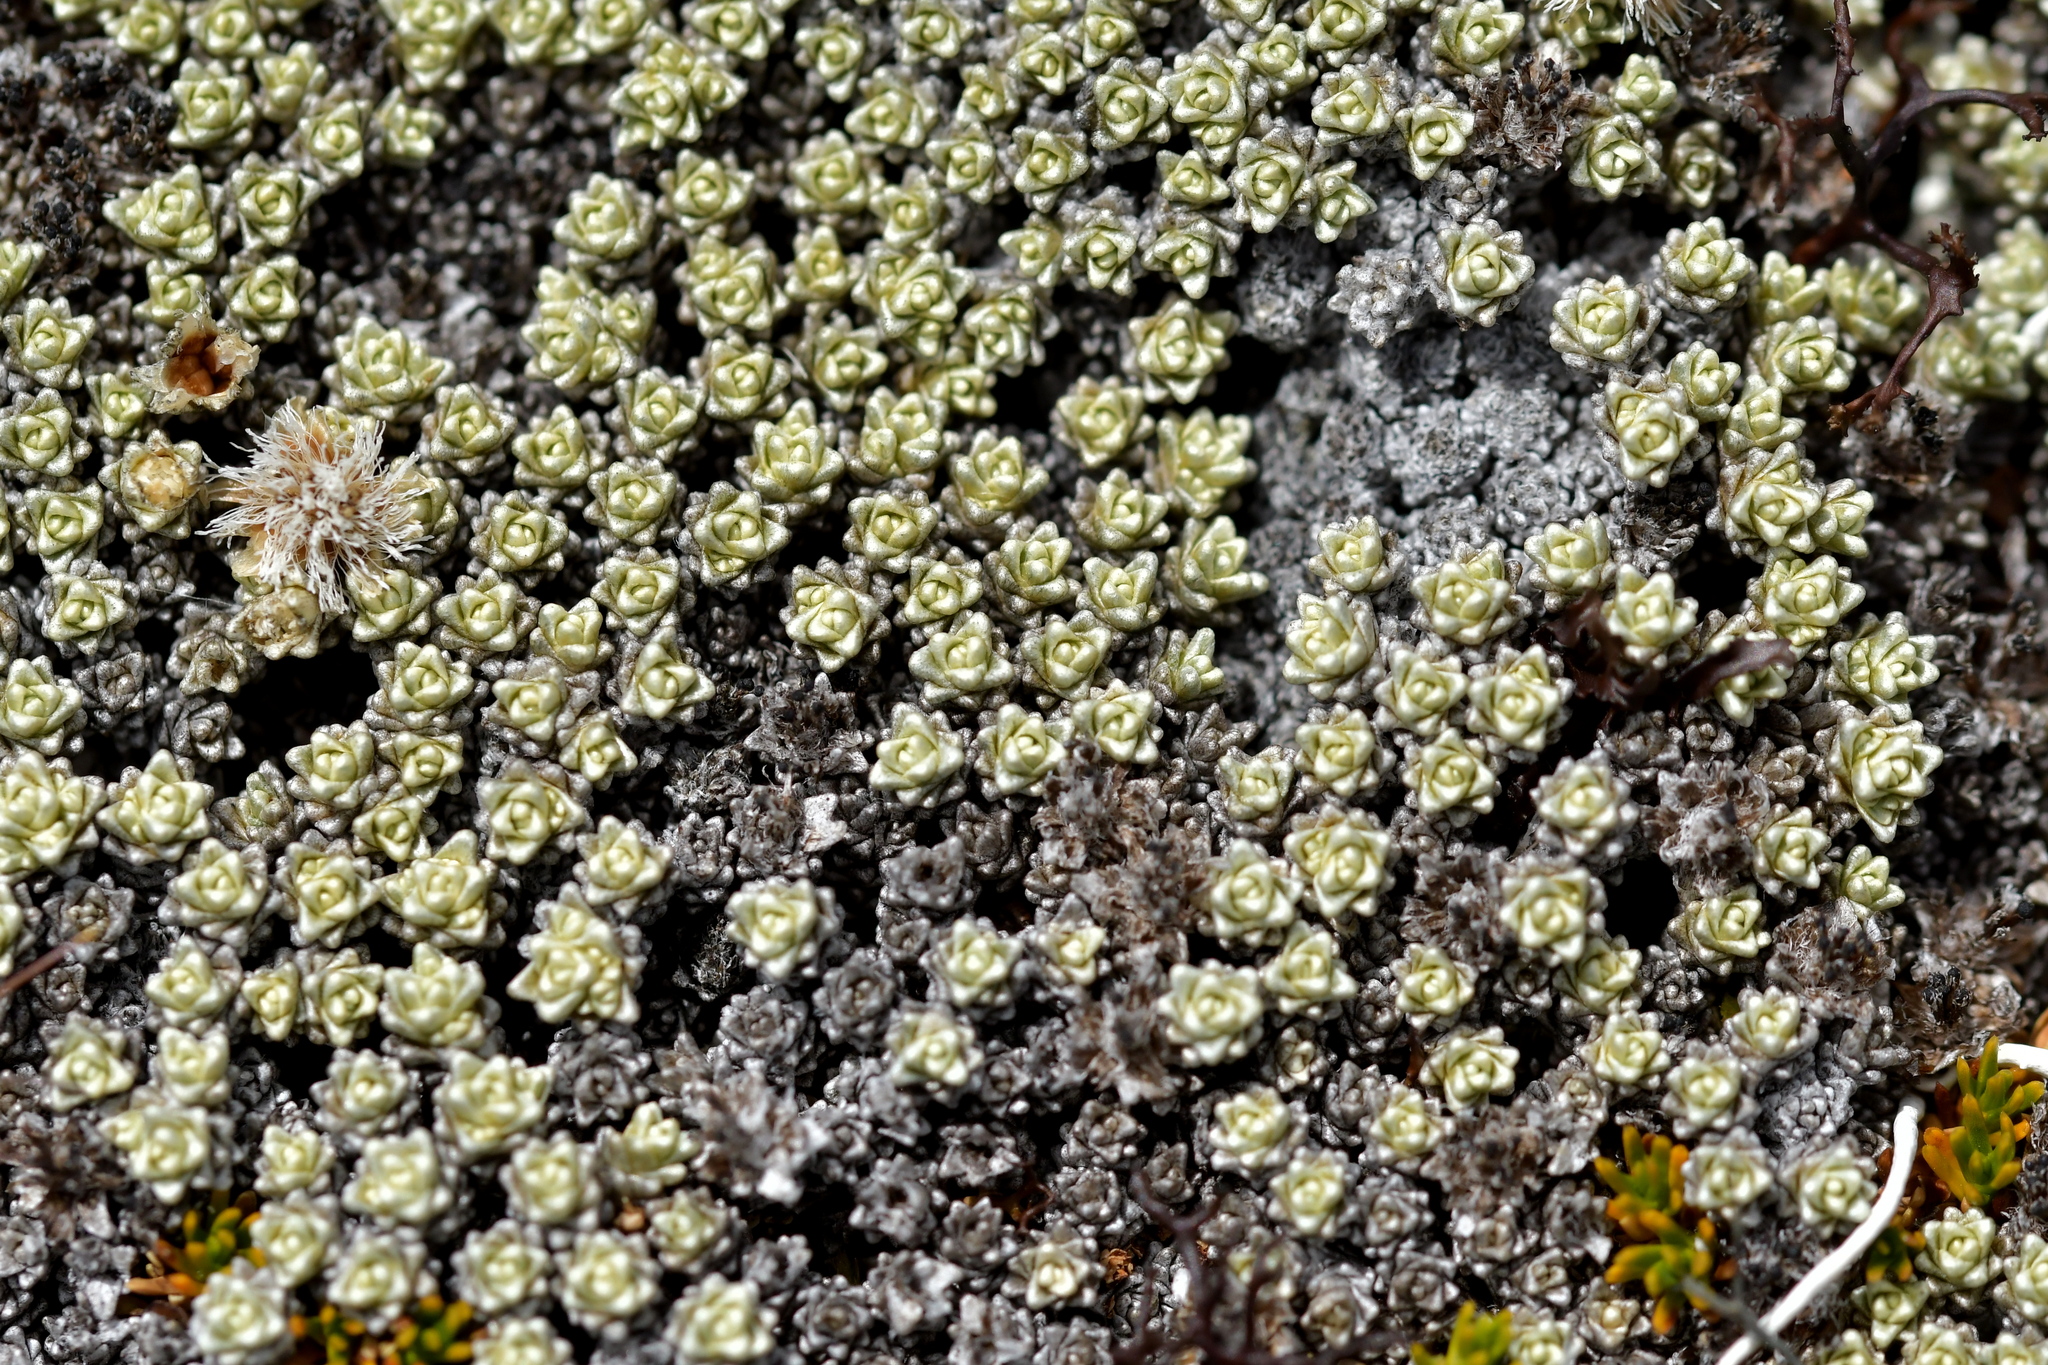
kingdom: Plantae
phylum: Tracheophyta
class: Magnoliopsida
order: Asterales
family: Asteraceae
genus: Raoulia
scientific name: Raoulia hectorii
